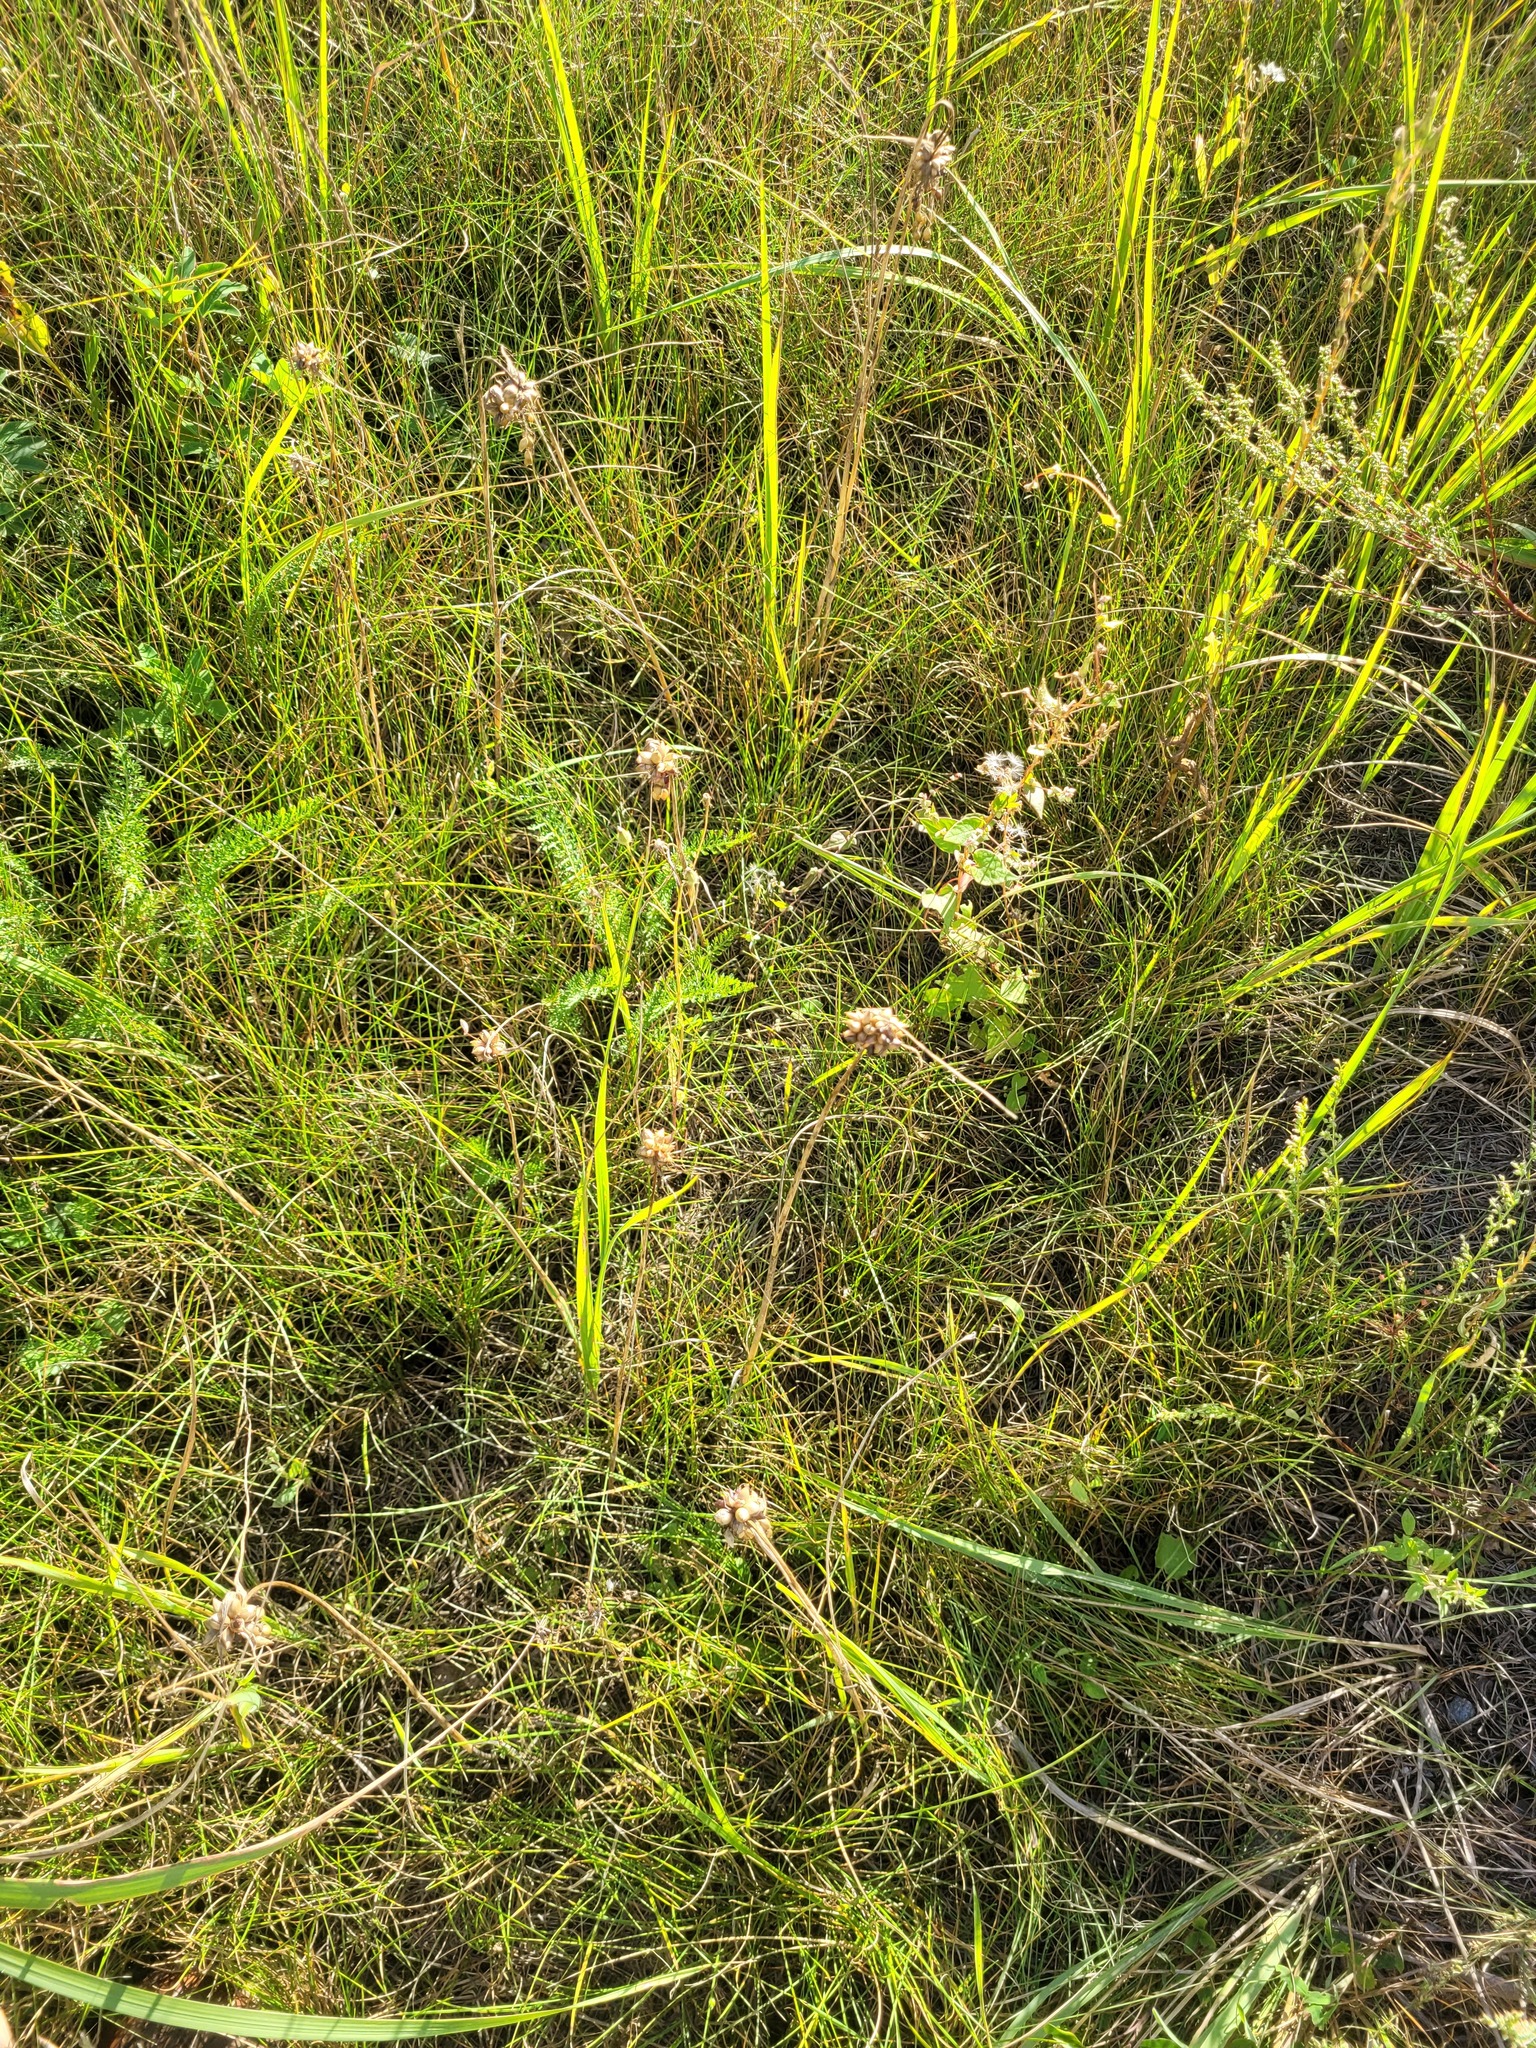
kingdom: Plantae
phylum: Tracheophyta
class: Liliopsida
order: Asparagales
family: Amaryllidaceae
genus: Allium
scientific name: Allium oleraceum
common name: Field garlic
